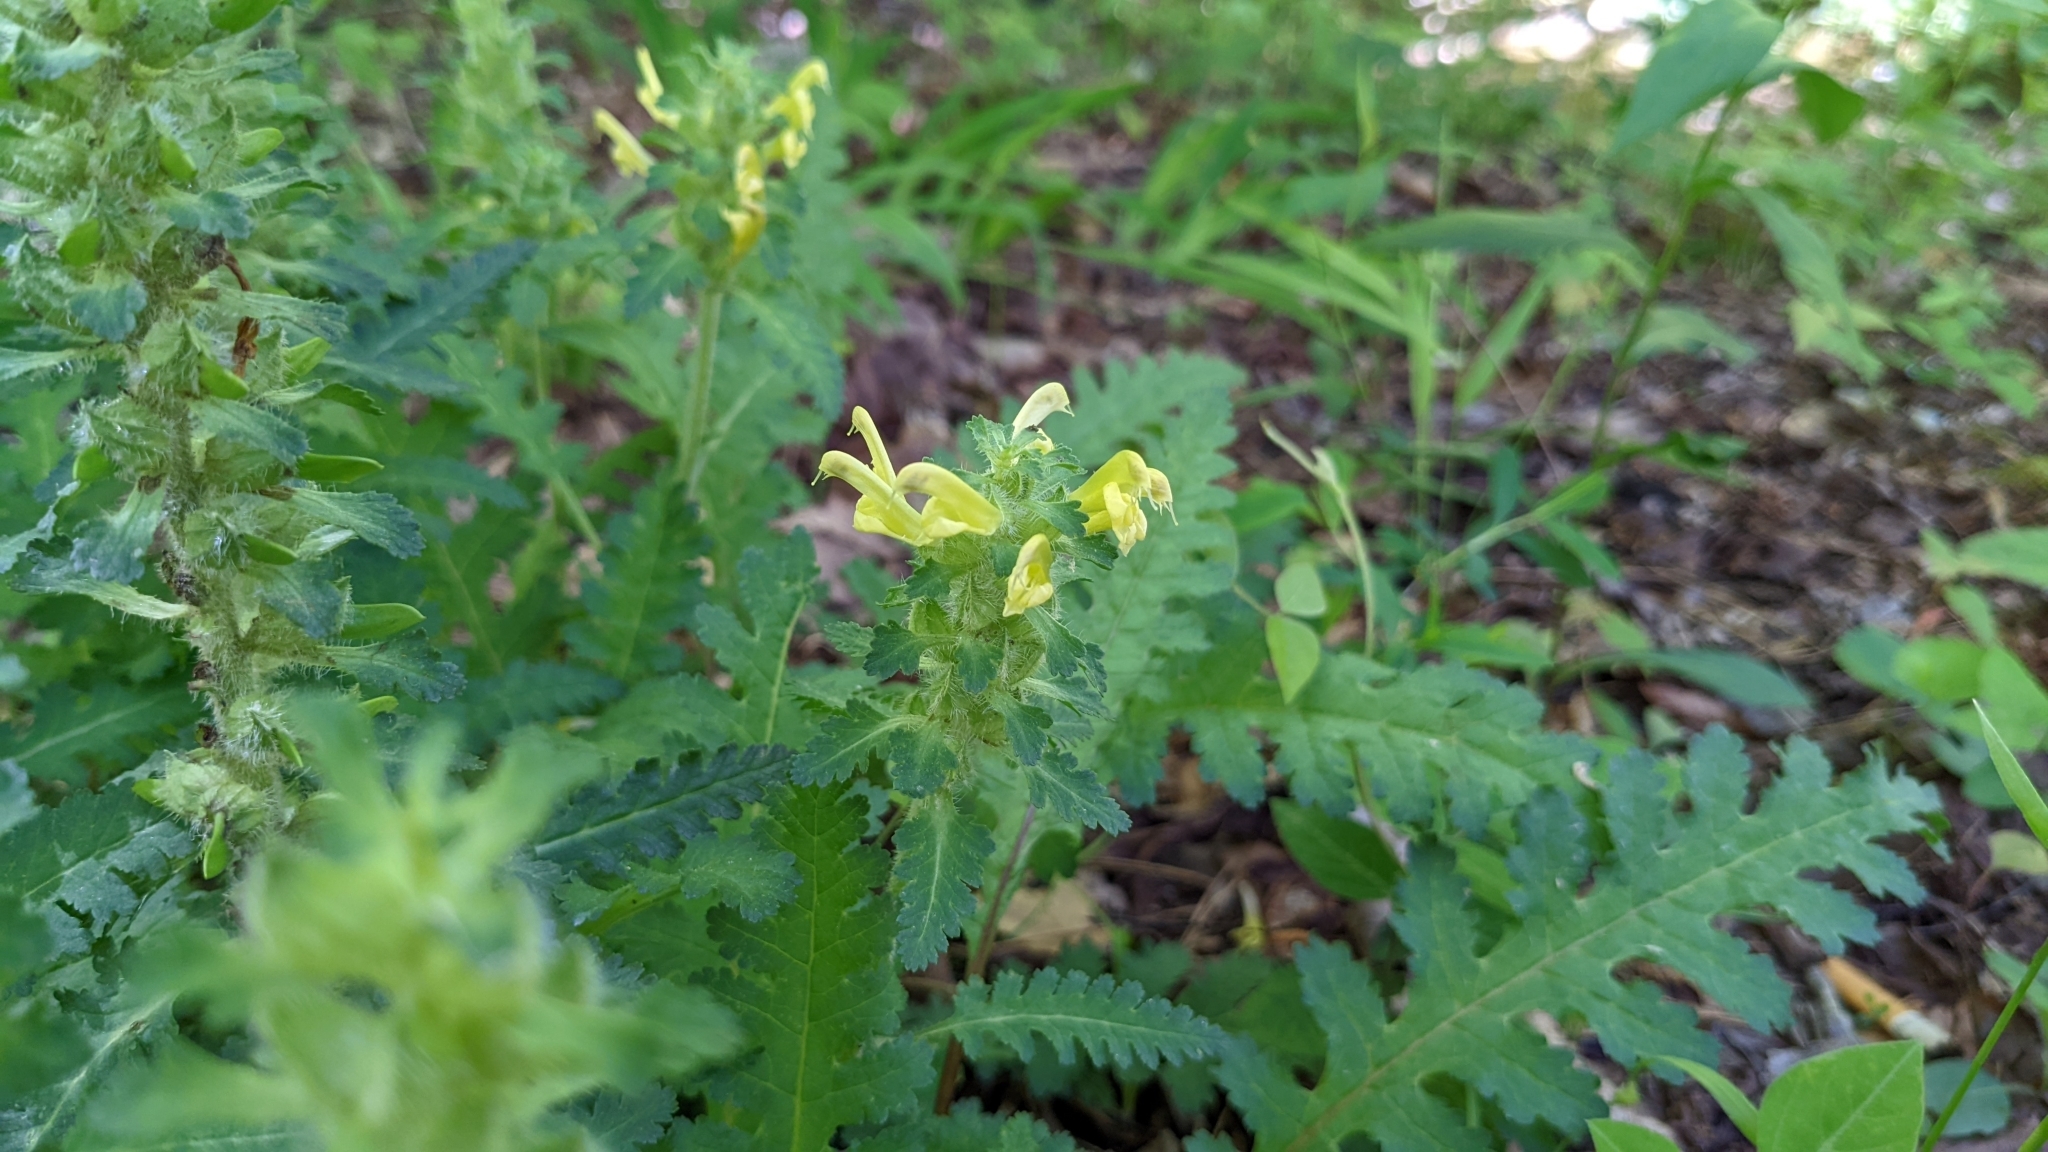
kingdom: Plantae
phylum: Tracheophyta
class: Magnoliopsida
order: Lamiales
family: Orobanchaceae
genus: Pedicularis
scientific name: Pedicularis canadensis
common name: Early lousewort
